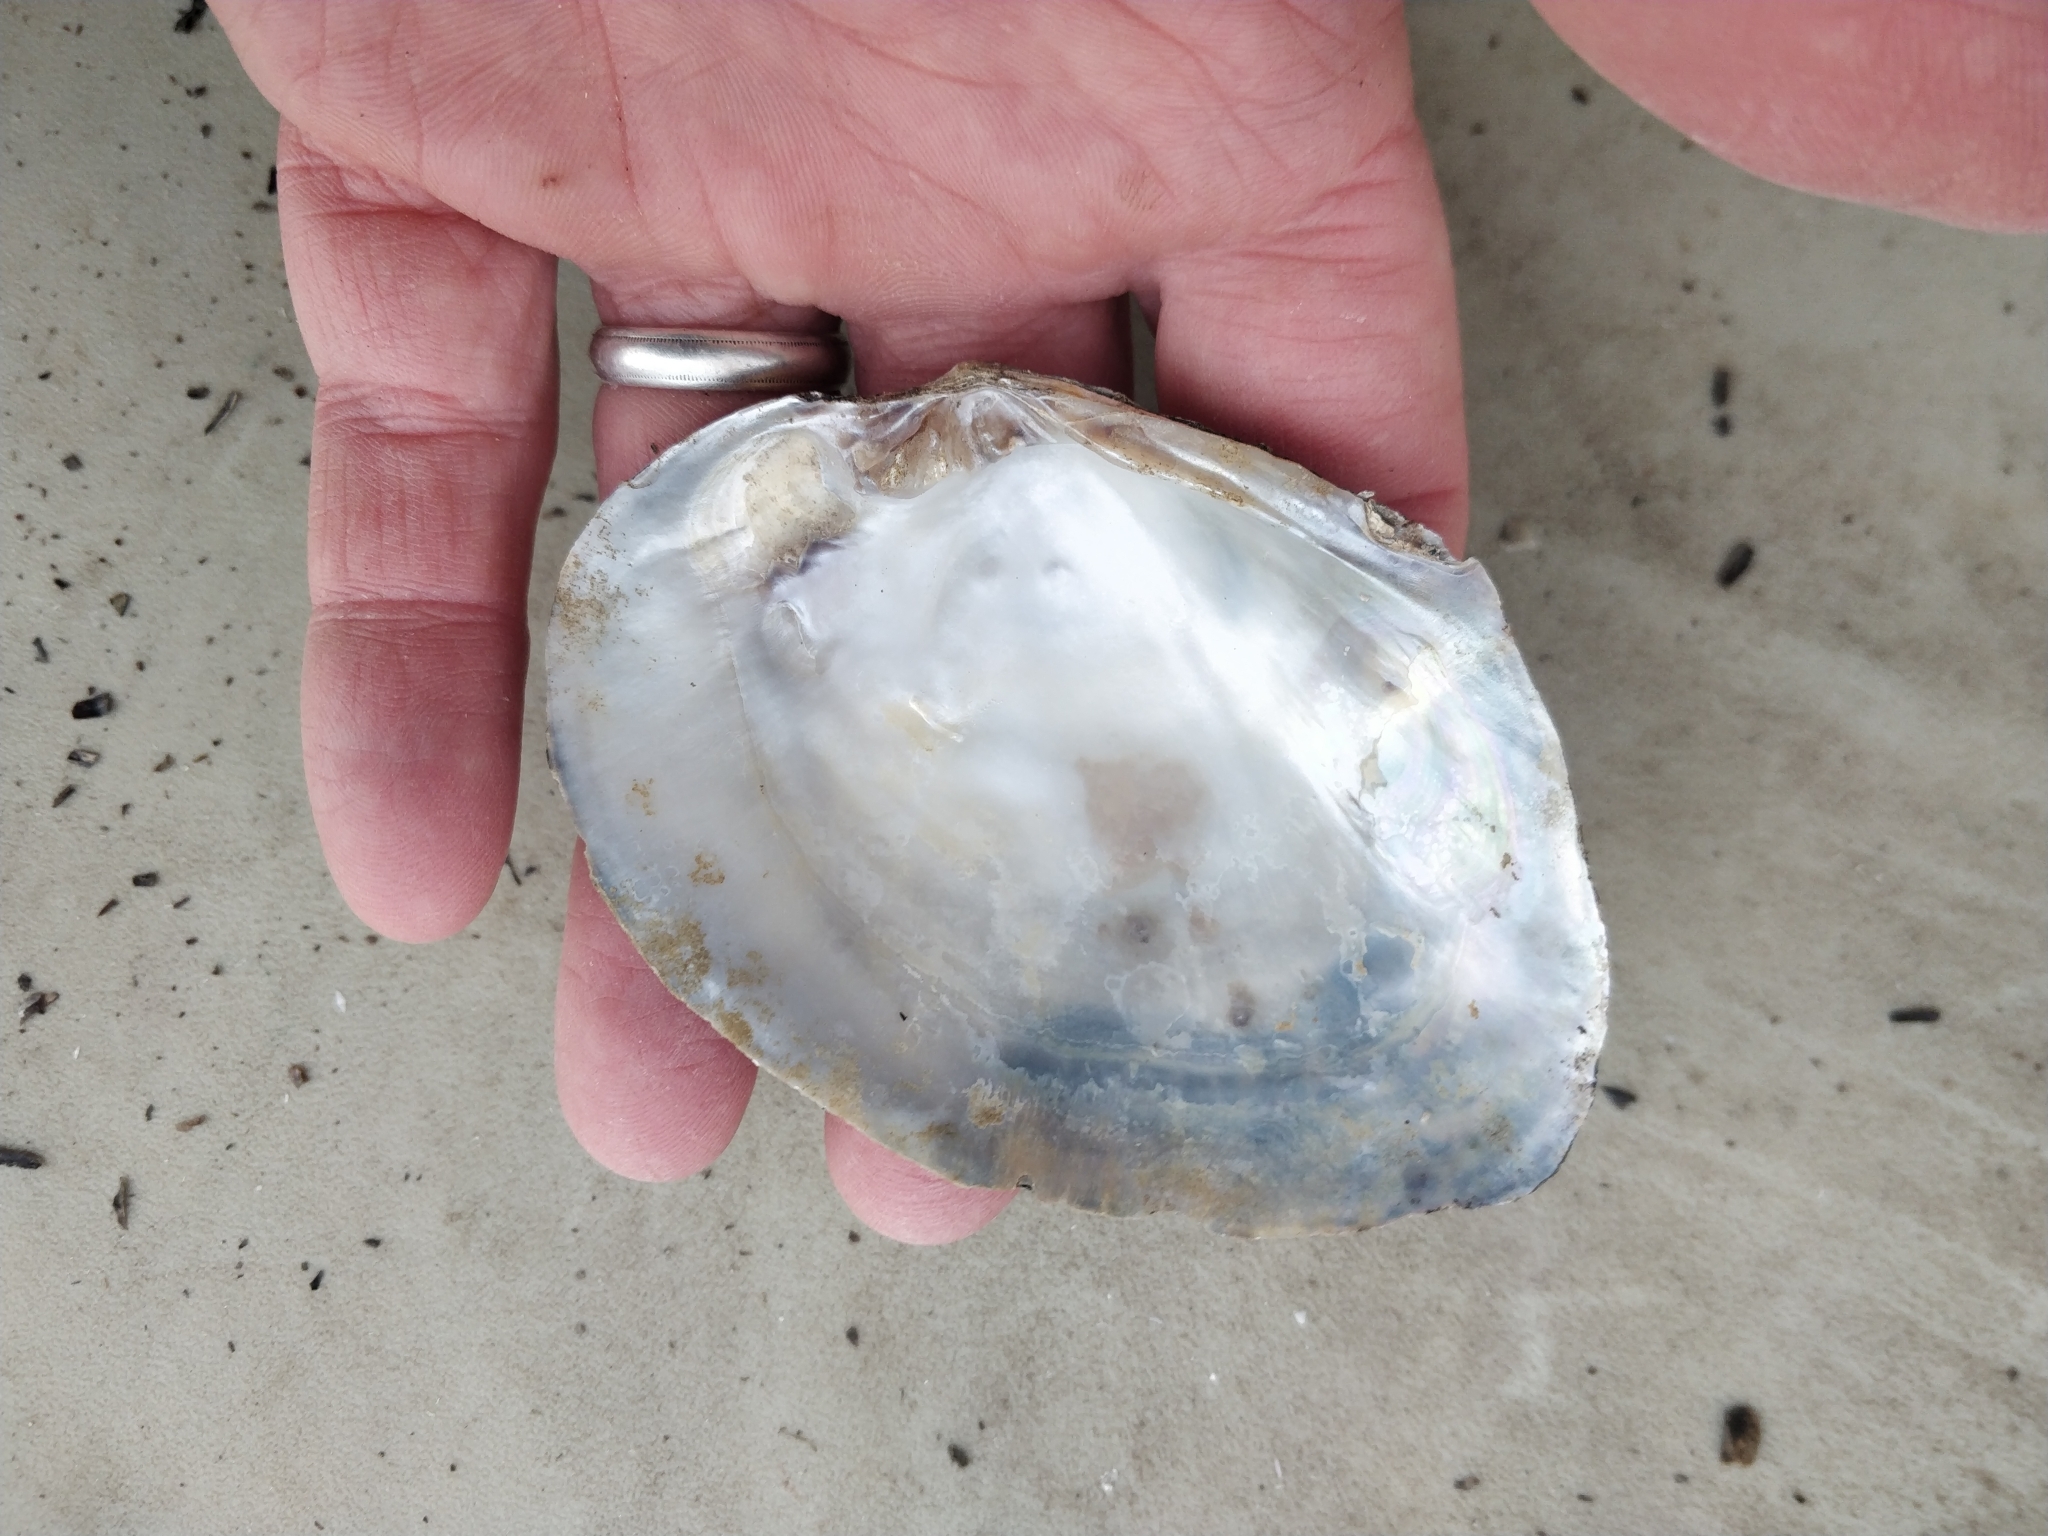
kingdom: Animalia
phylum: Mollusca
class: Bivalvia
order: Unionida
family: Unionidae
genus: Lasmigona
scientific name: Lasmigona complanata
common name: White heelsplitter
